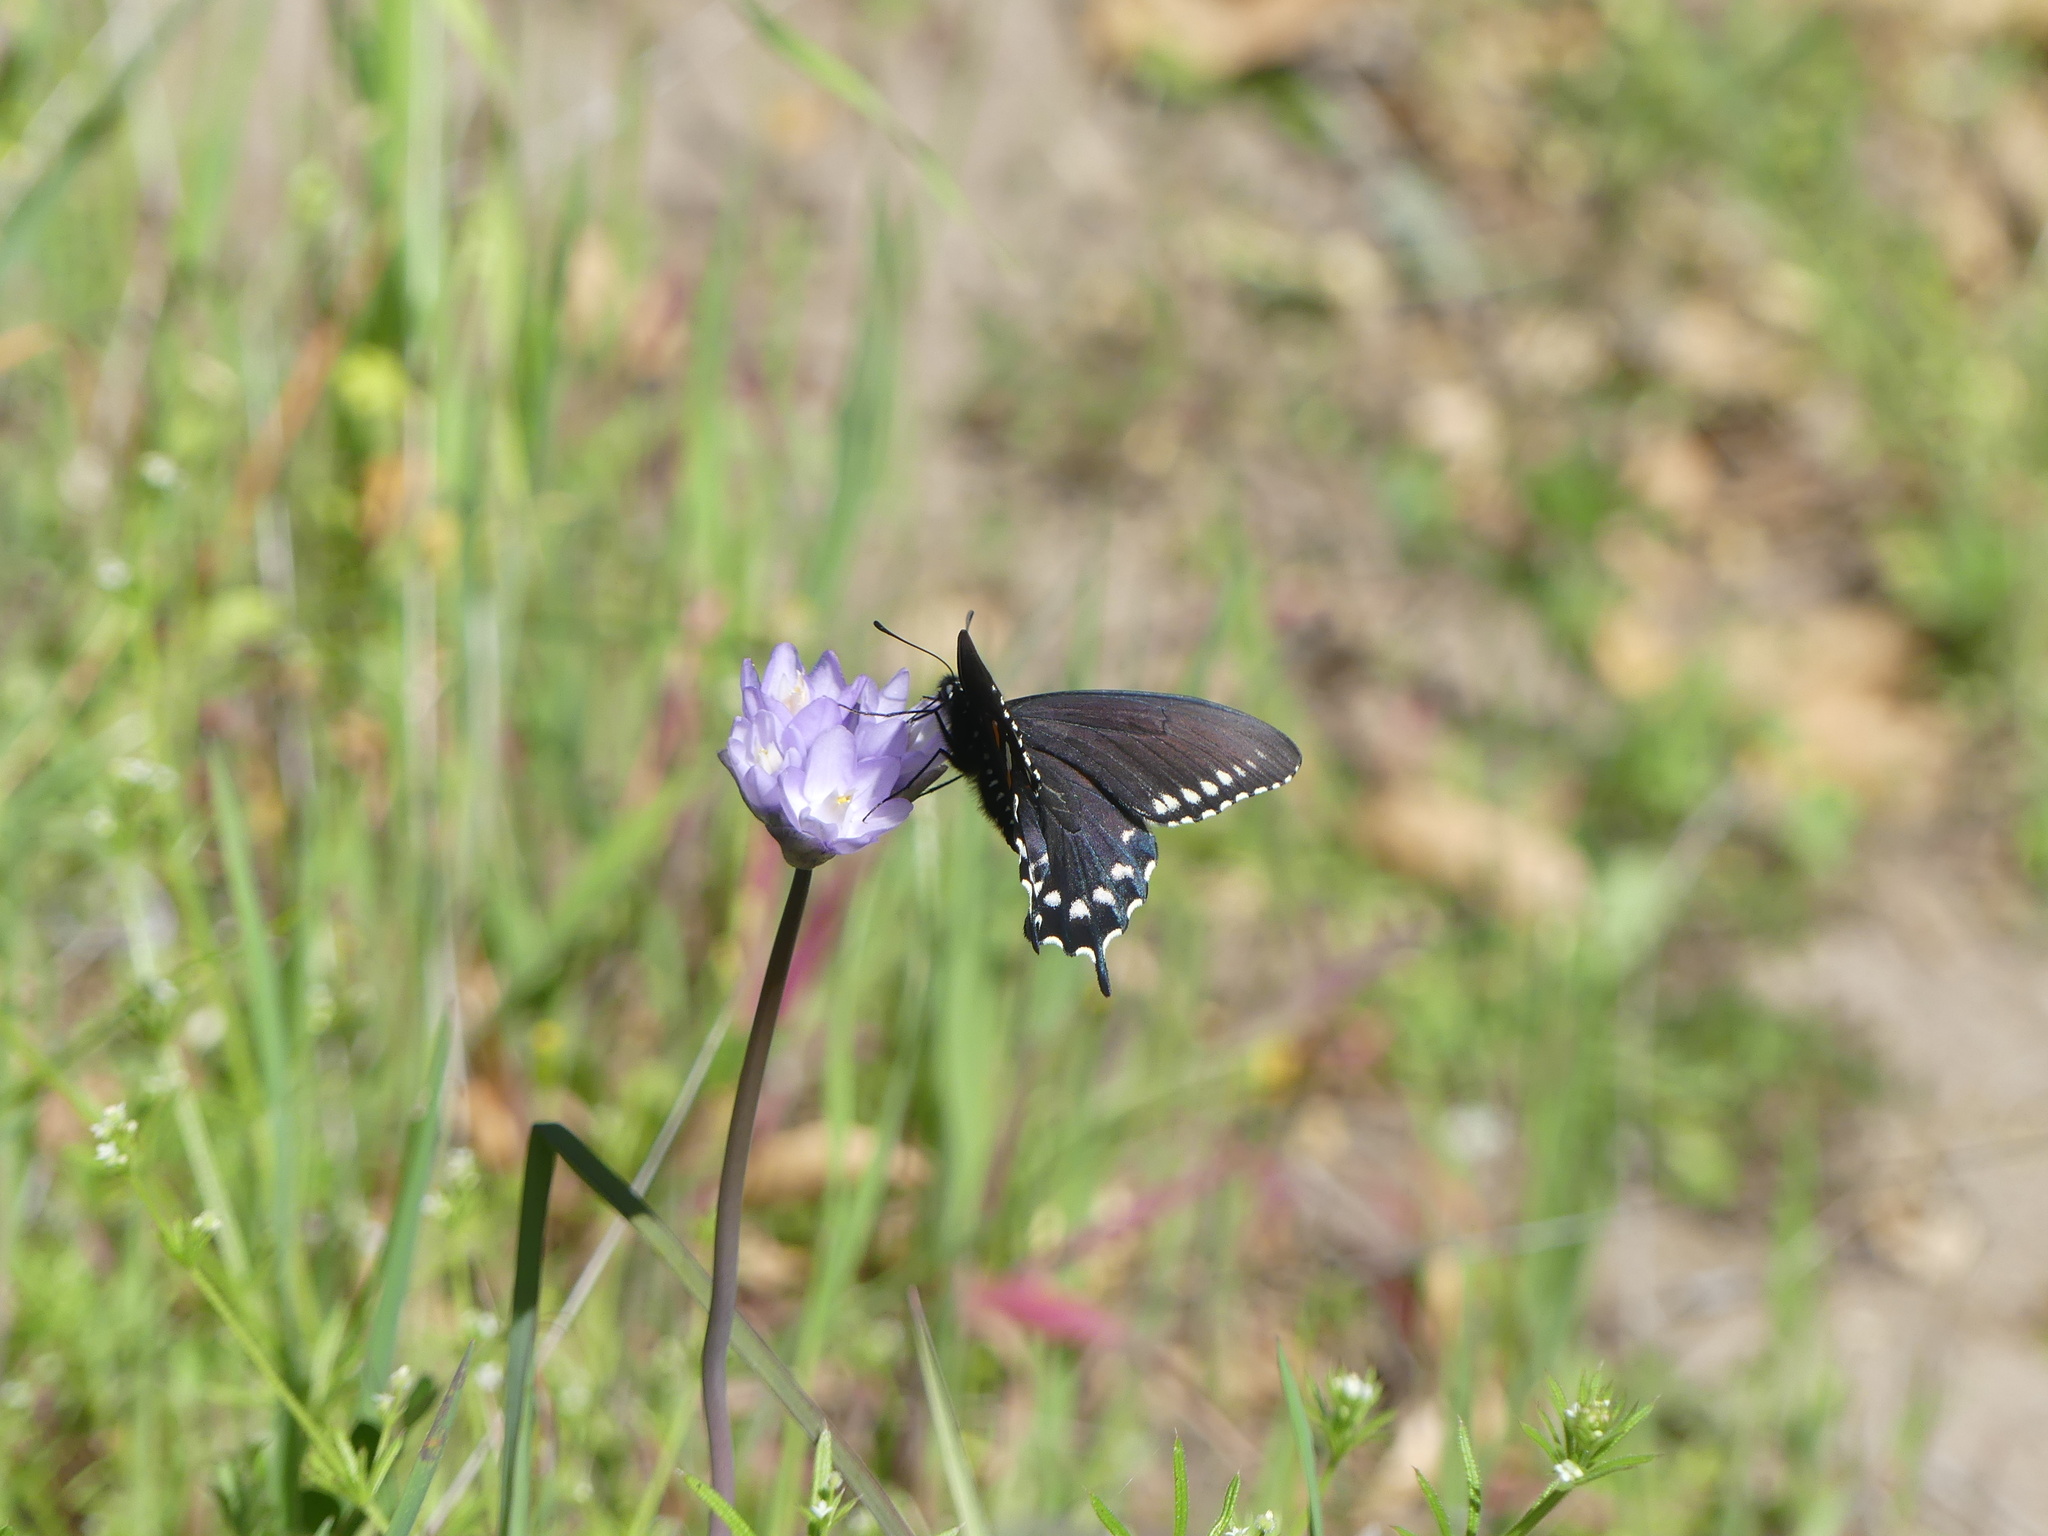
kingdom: Animalia
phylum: Arthropoda
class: Insecta
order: Lepidoptera
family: Papilionidae
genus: Battus
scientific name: Battus philenor
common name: Pipevine swallowtail
